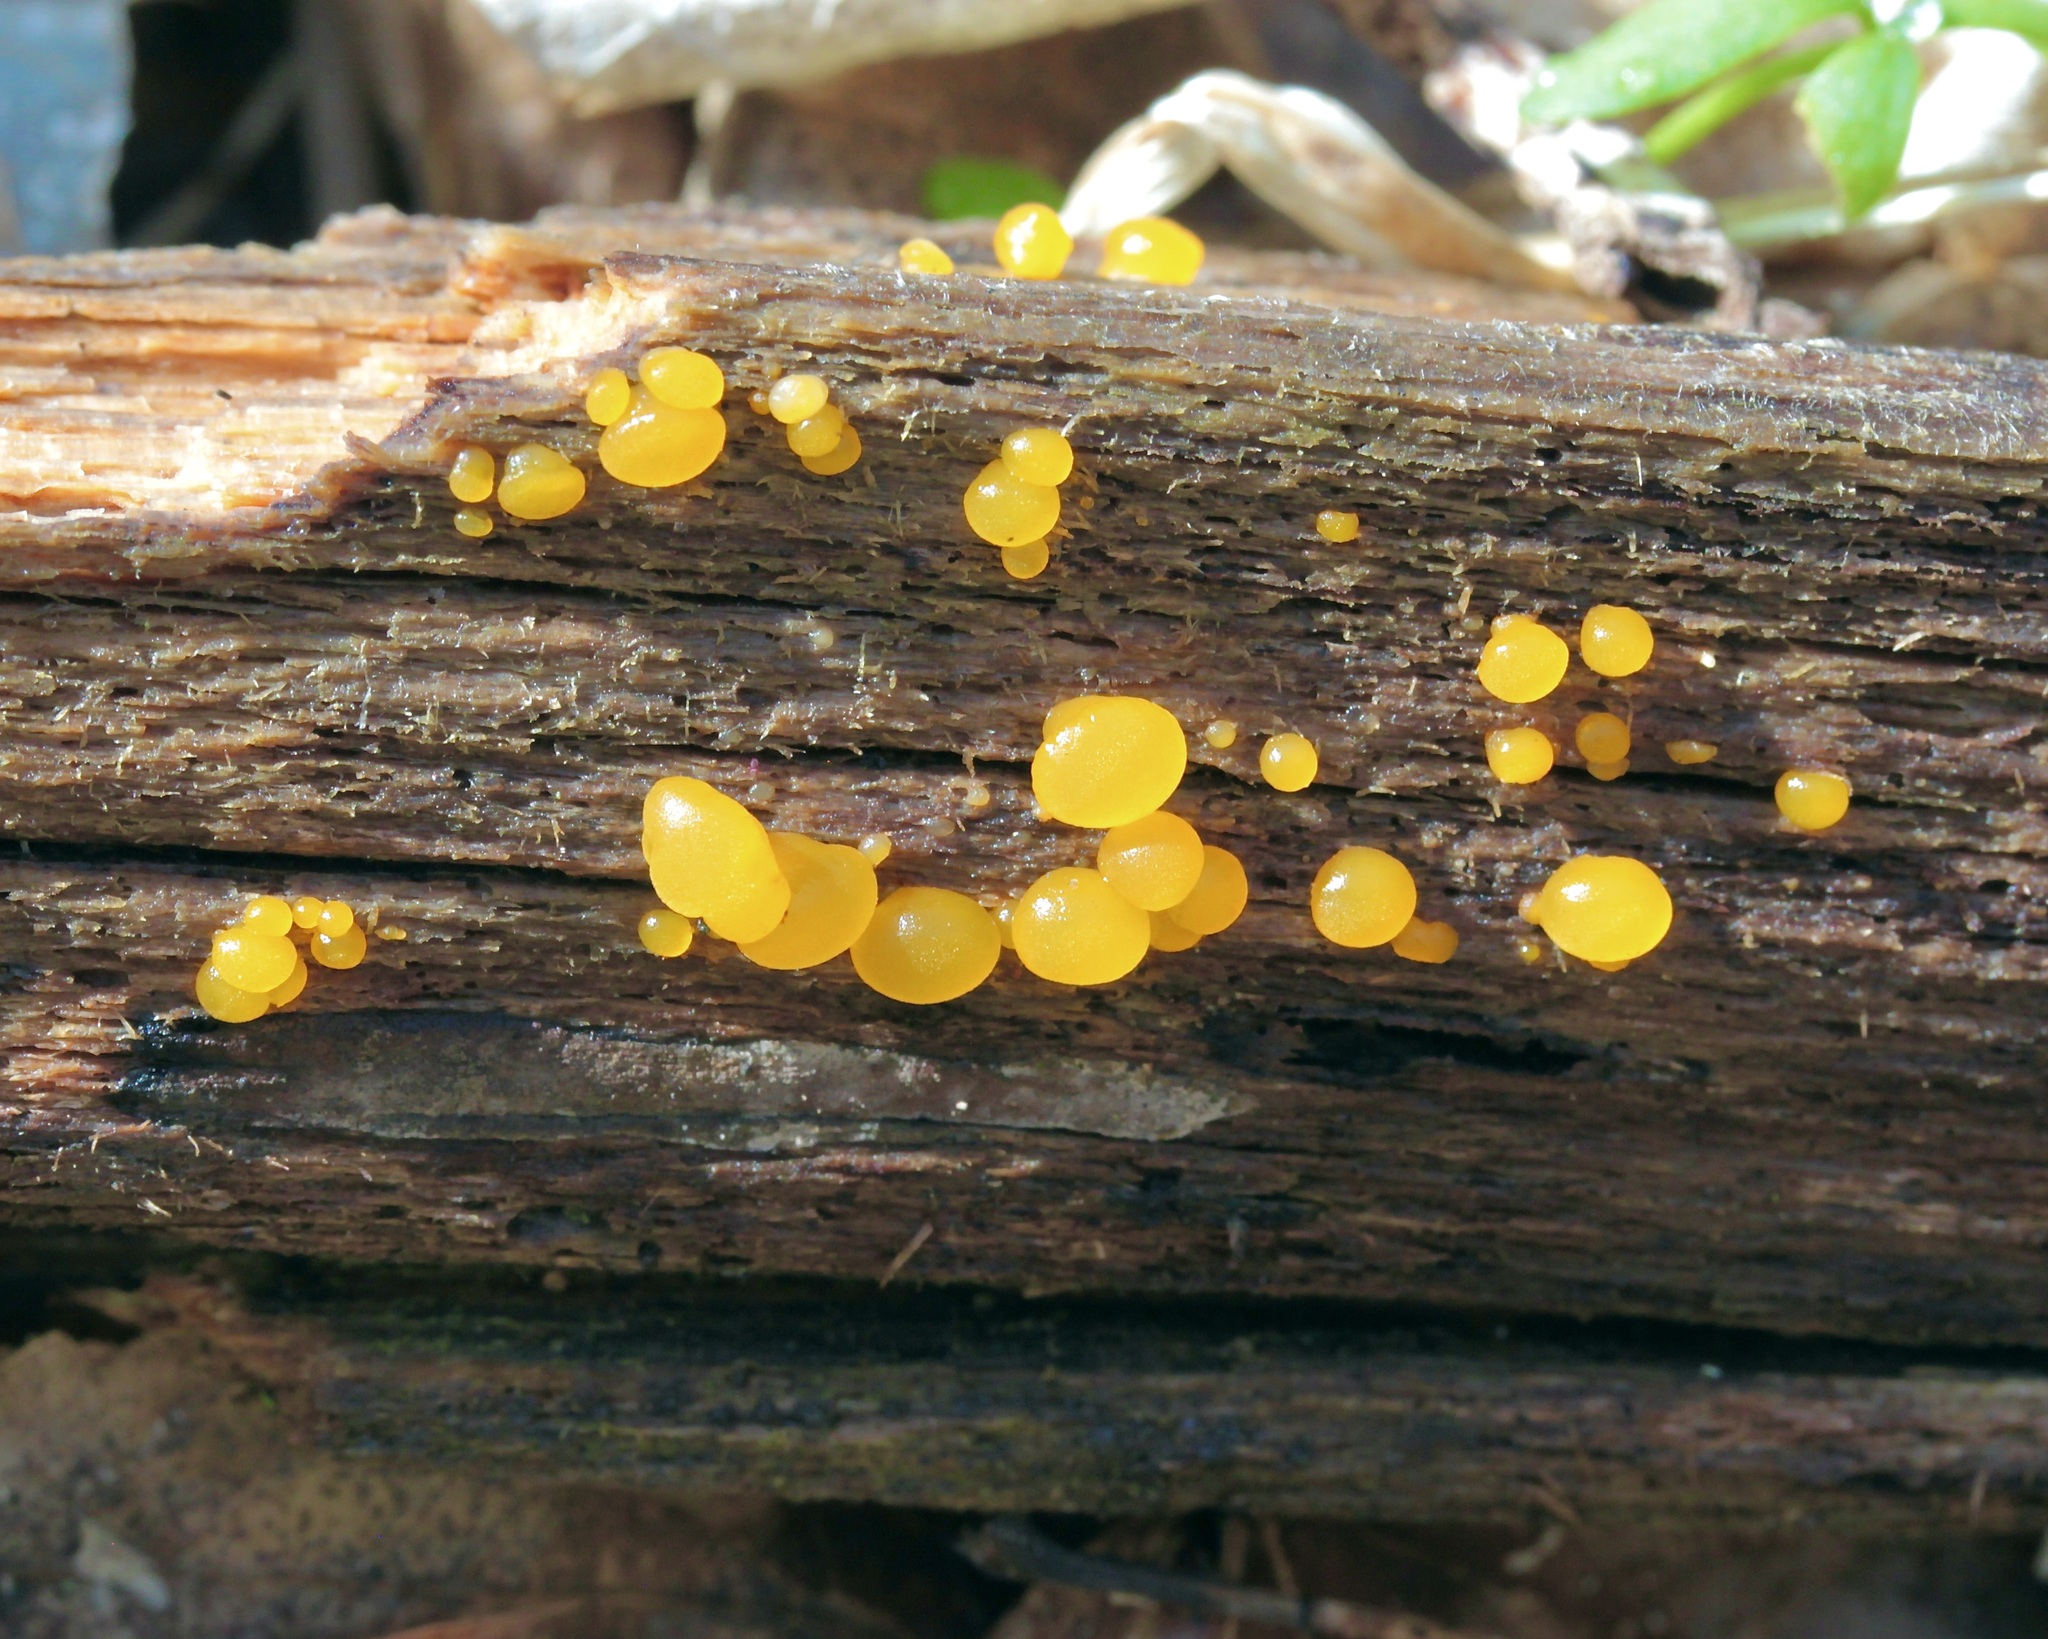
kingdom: Fungi
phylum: Basidiomycota
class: Dacrymycetes
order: Dacrymycetales
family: Dacrymycetaceae
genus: Dacrymyces
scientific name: Dacrymyces capitatus
